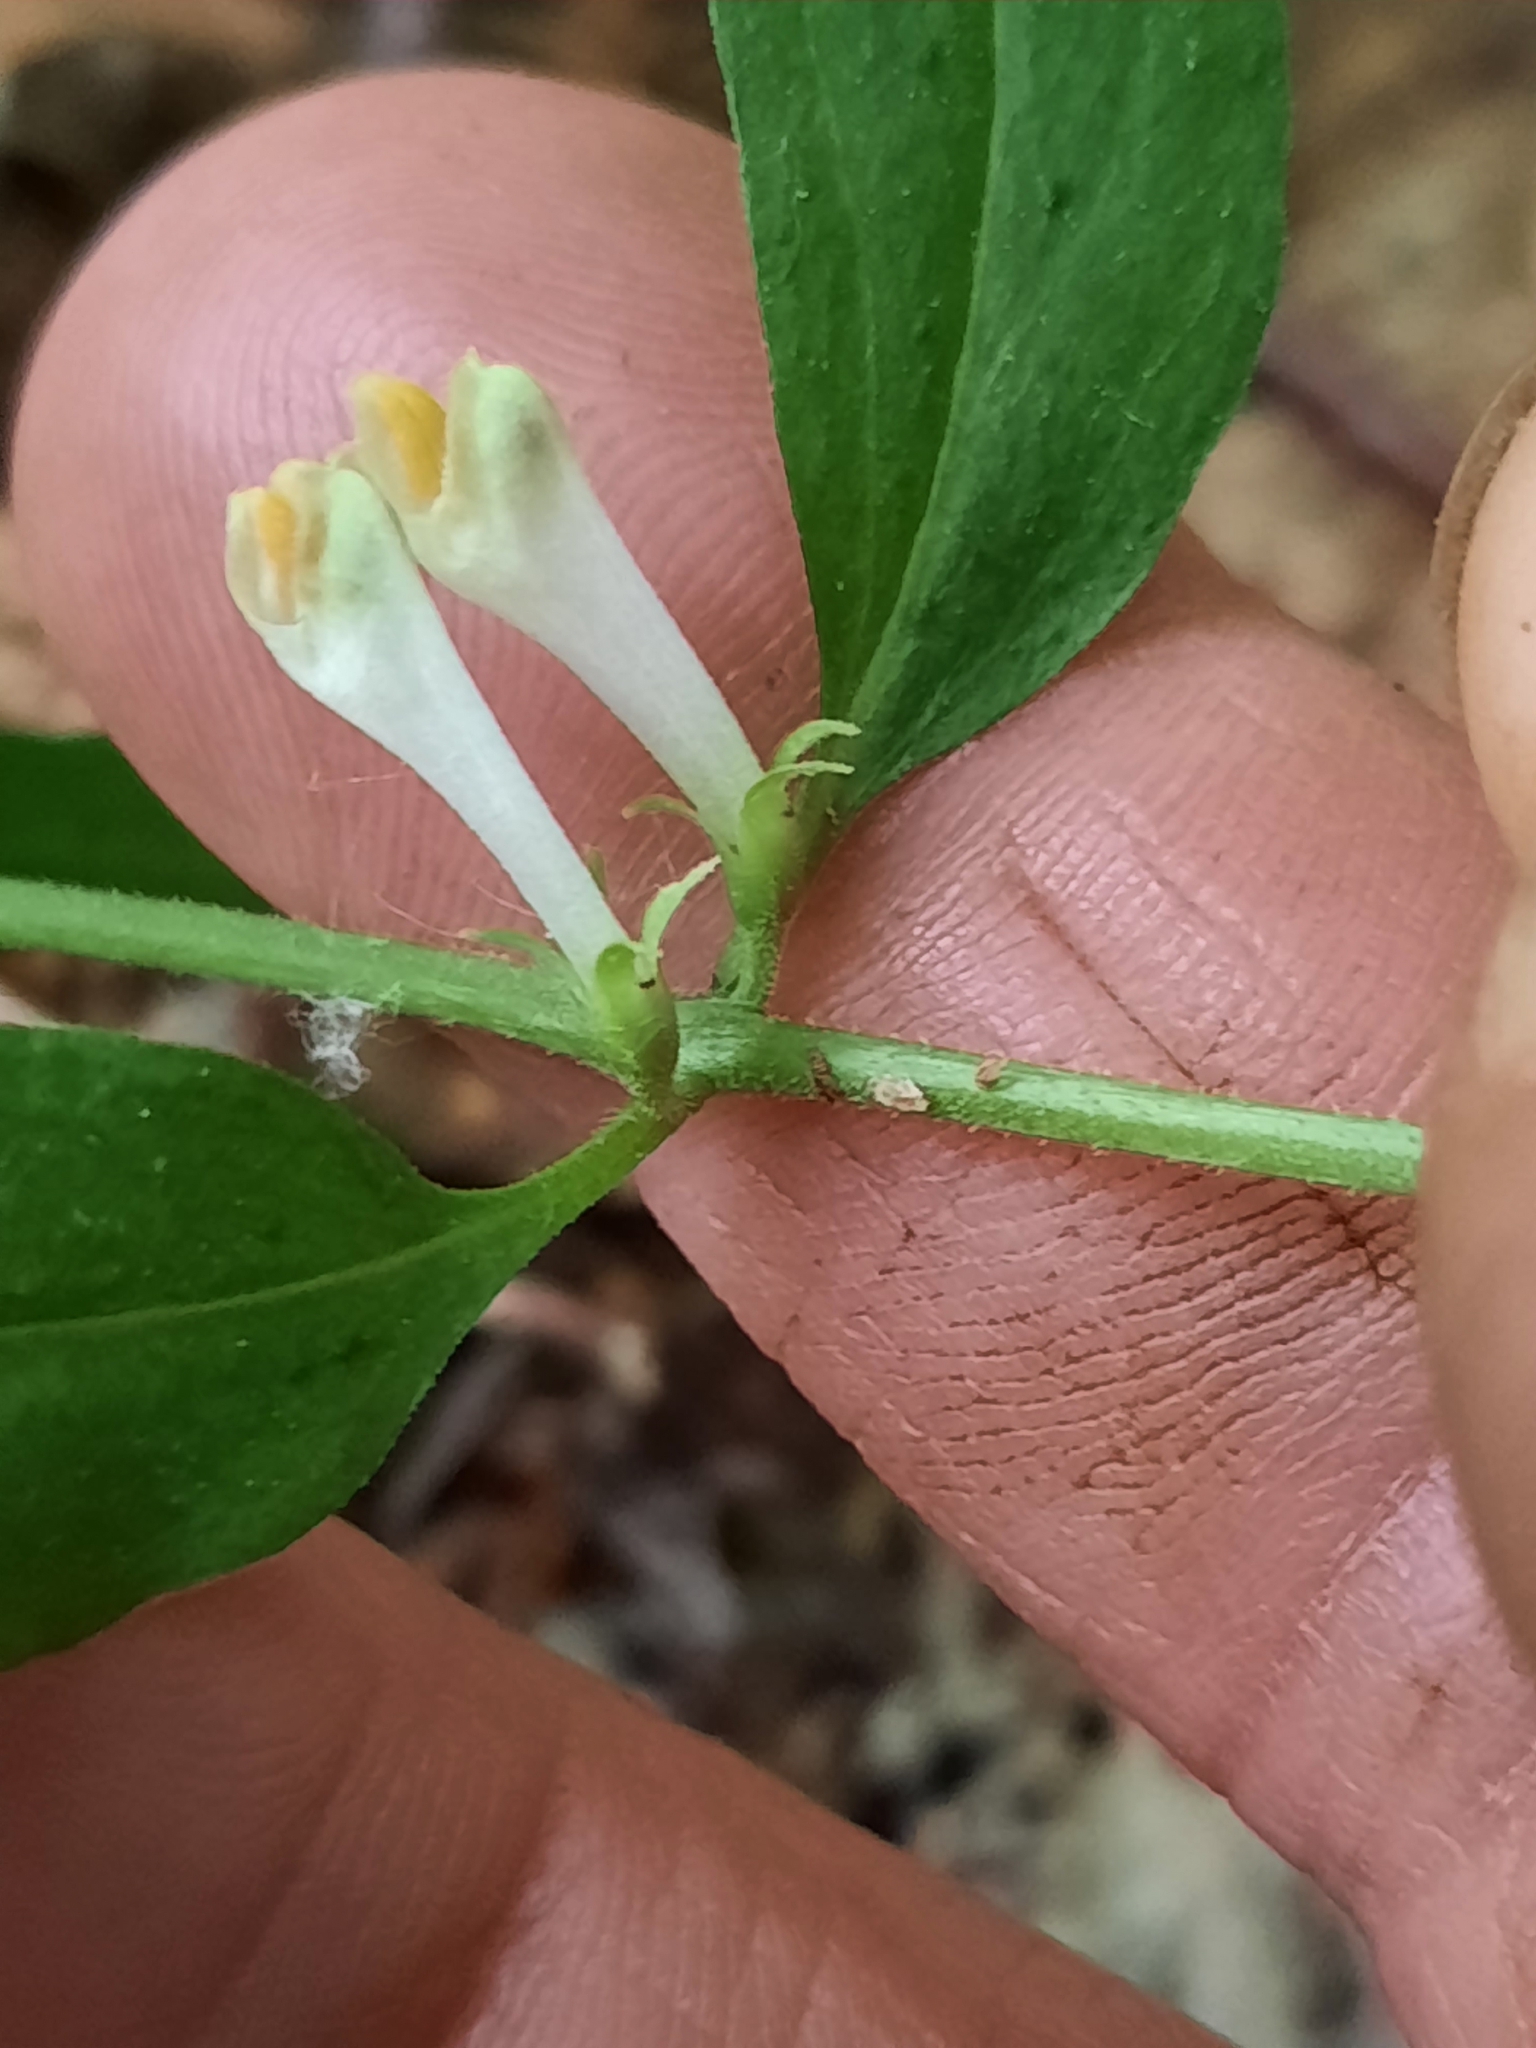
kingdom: Plantae
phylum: Tracheophyta
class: Magnoliopsida
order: Lamiales
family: Orobanchaceae
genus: Melampyrum
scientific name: Melampyrum lineare
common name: American cow-wheat
